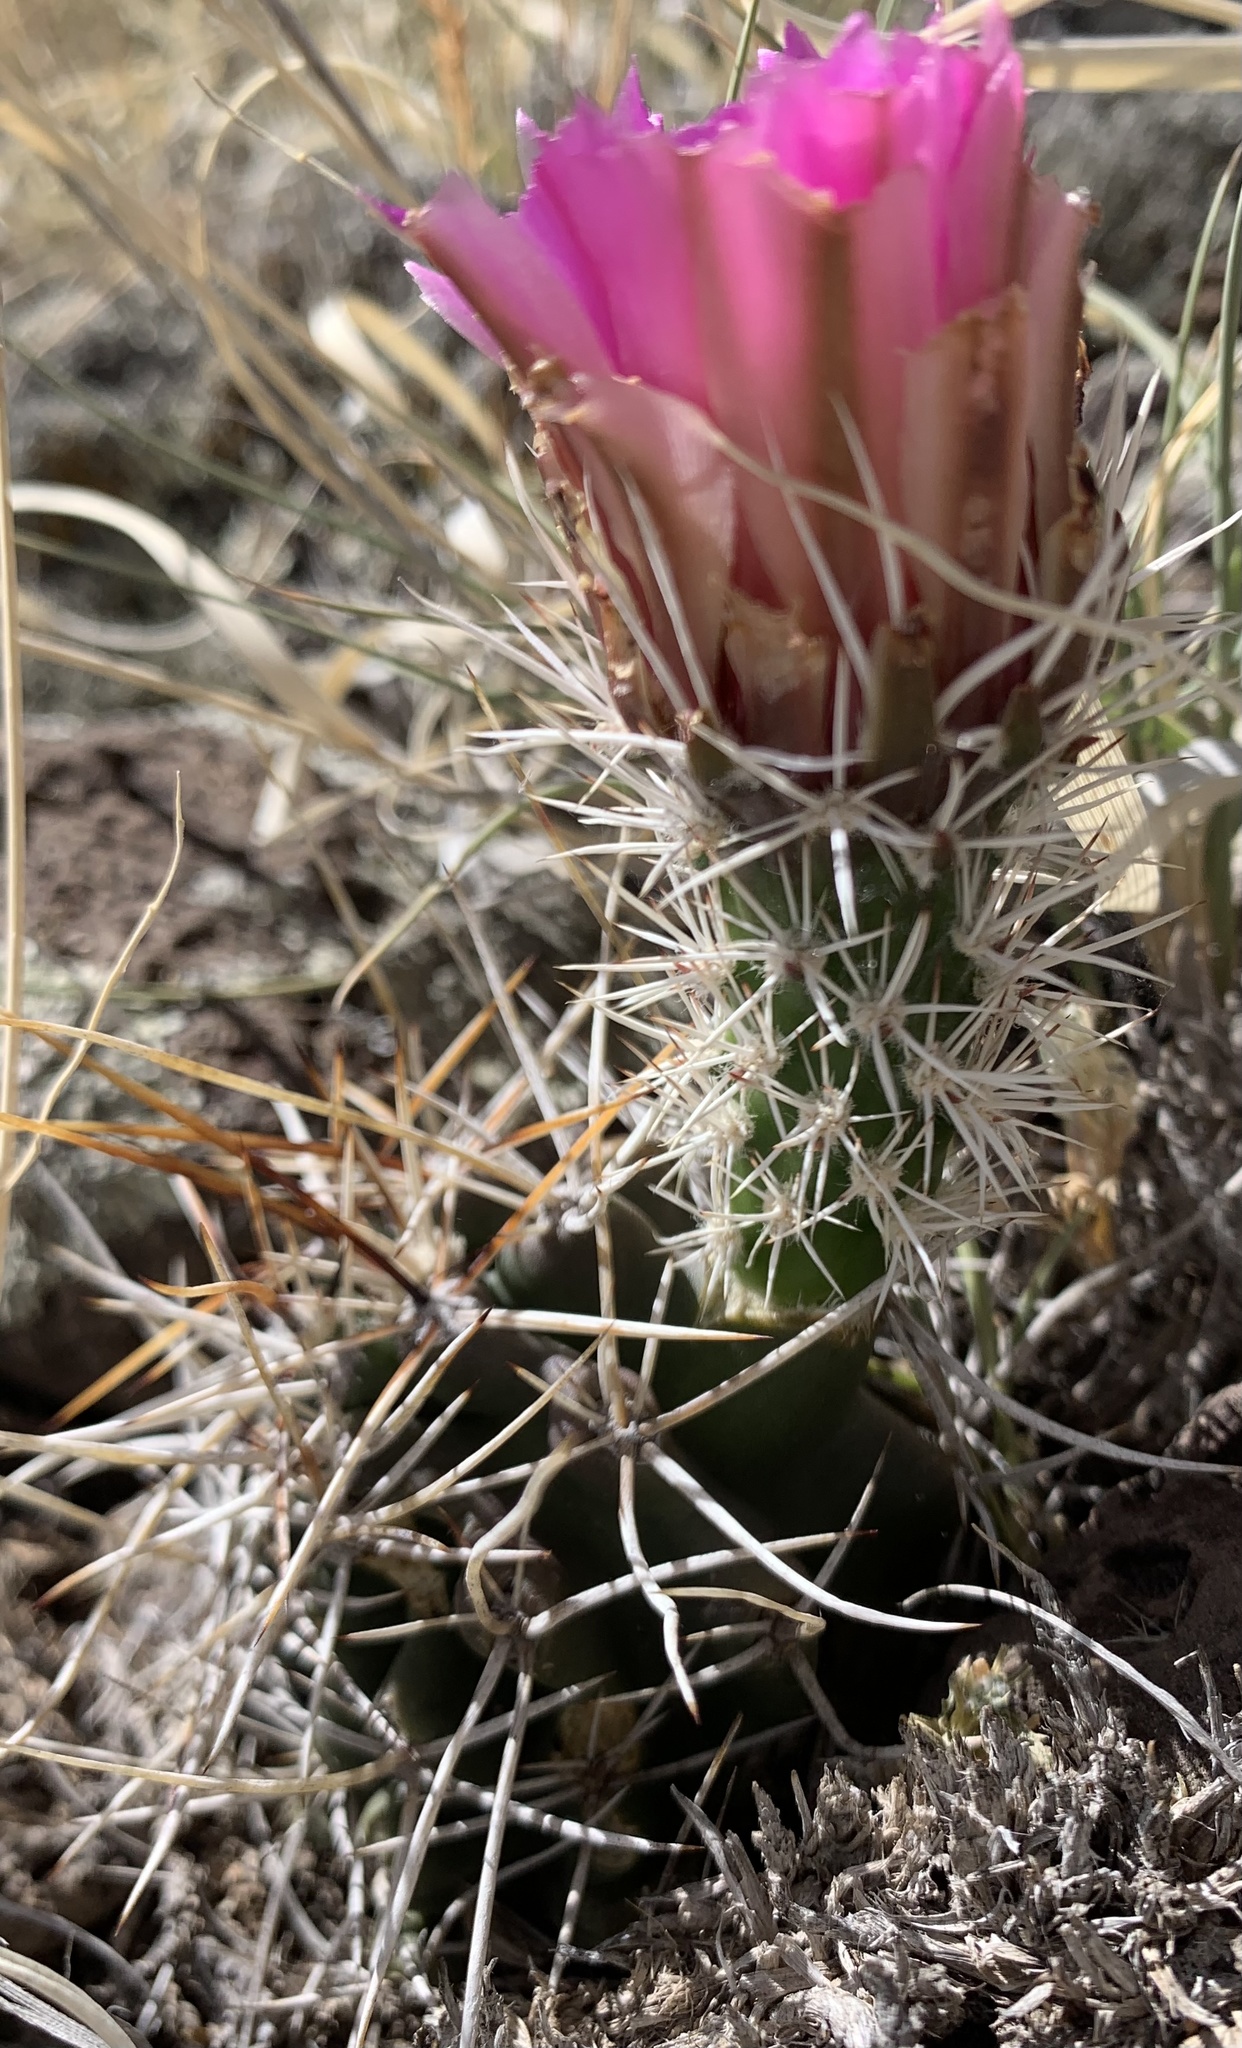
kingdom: Plantae
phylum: Tracheophyta
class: Magnoliopsida
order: Caryophyllales
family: Cactaceae
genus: Echinocereus
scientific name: Echinocereus fendleri
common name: Fendler's hedgehog cactus
